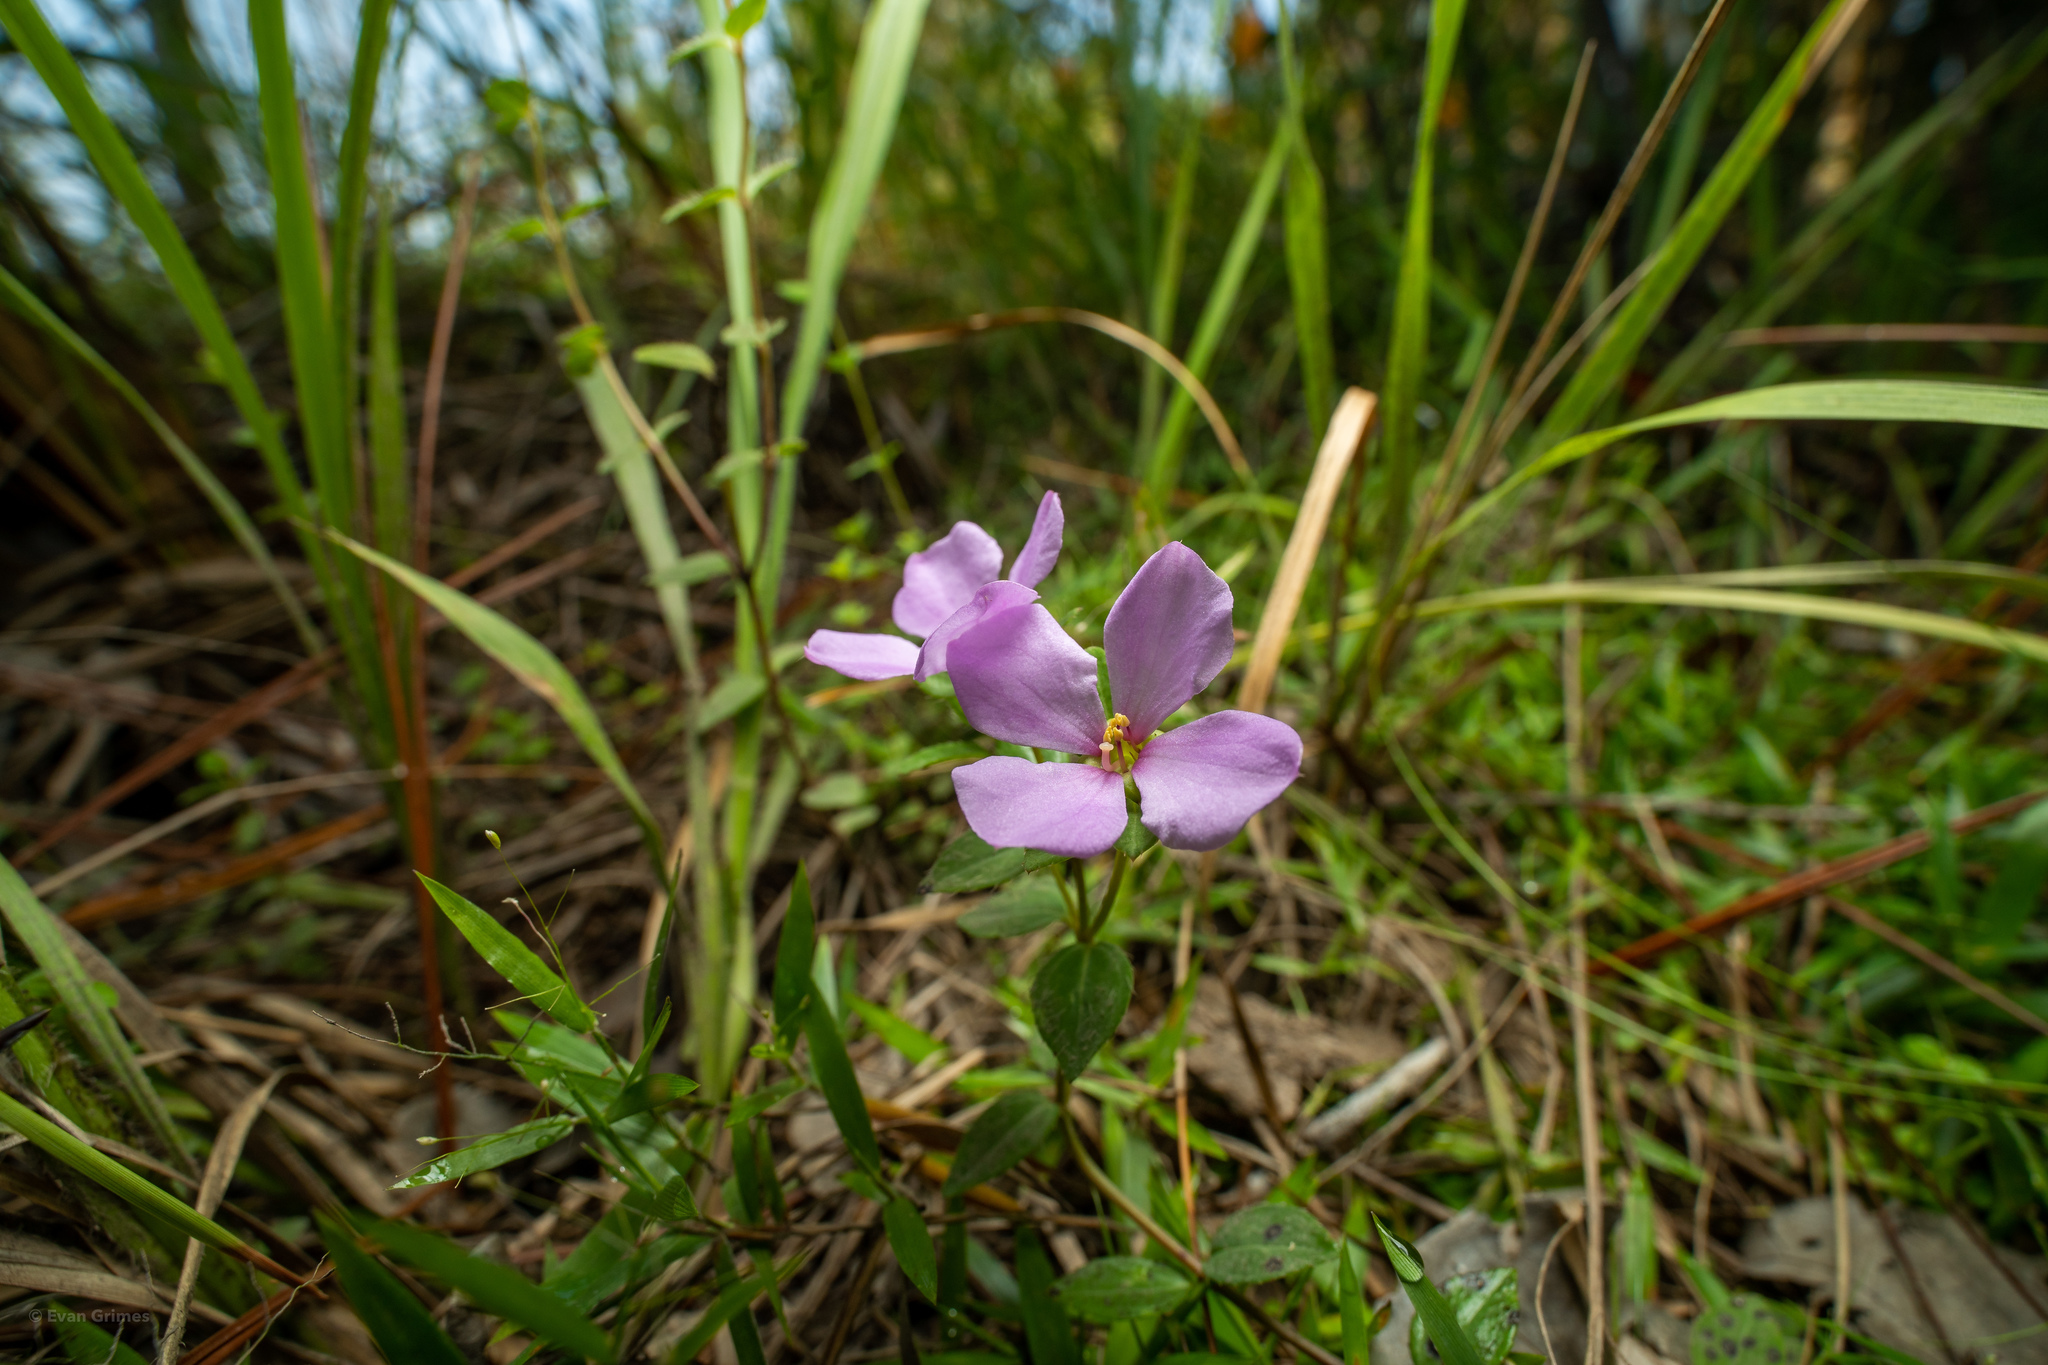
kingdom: Plantae
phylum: Tracheophyta
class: Magnoliopsida
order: Myrtales
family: Melastomataceae
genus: Rhexia
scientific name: Rhexia petiolata
